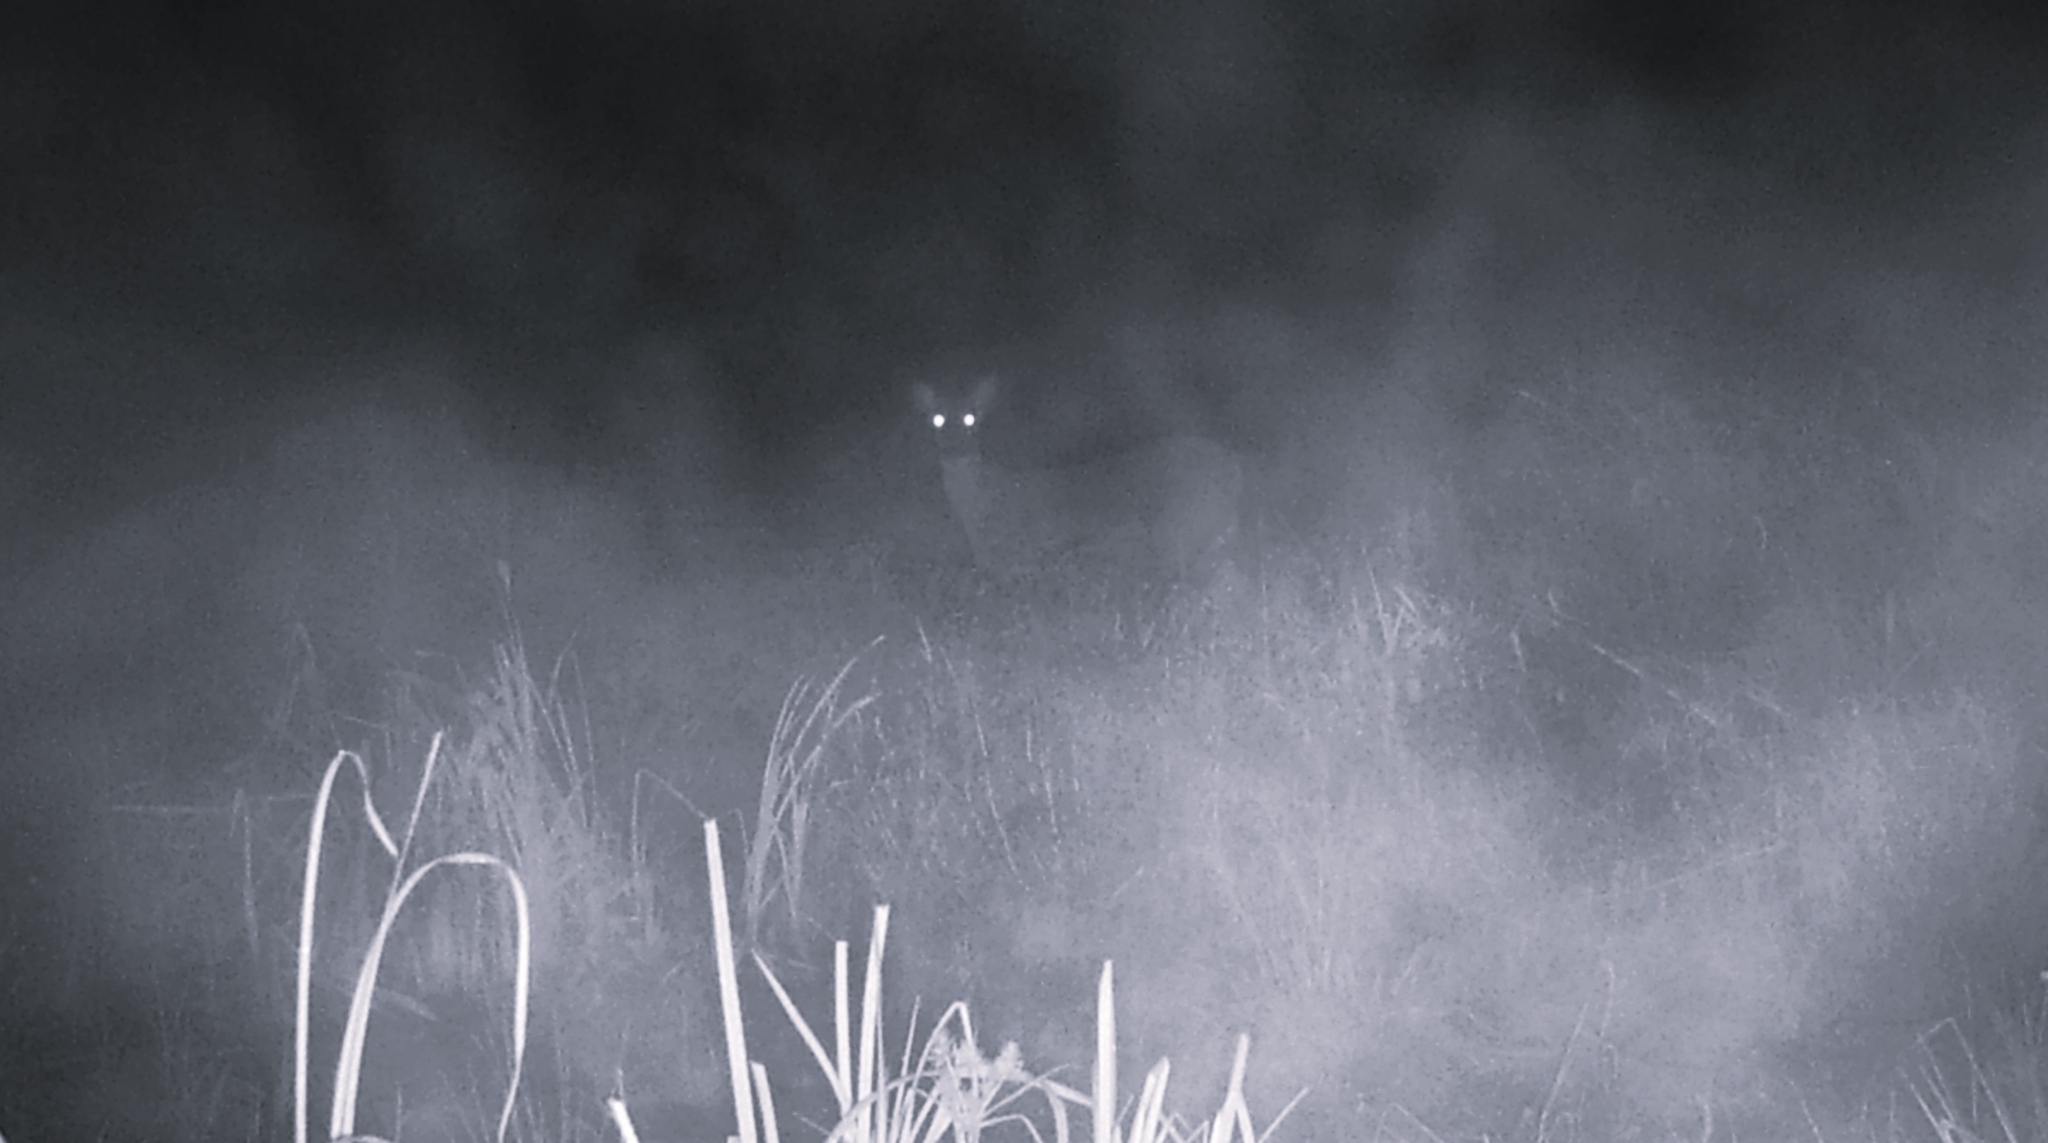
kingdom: Animalia
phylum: Chordata
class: Mammalia
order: Artiodactyla
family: Cervidae
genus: Odocoileus
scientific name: Odocoileus virginianus
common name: White-tailed deer
